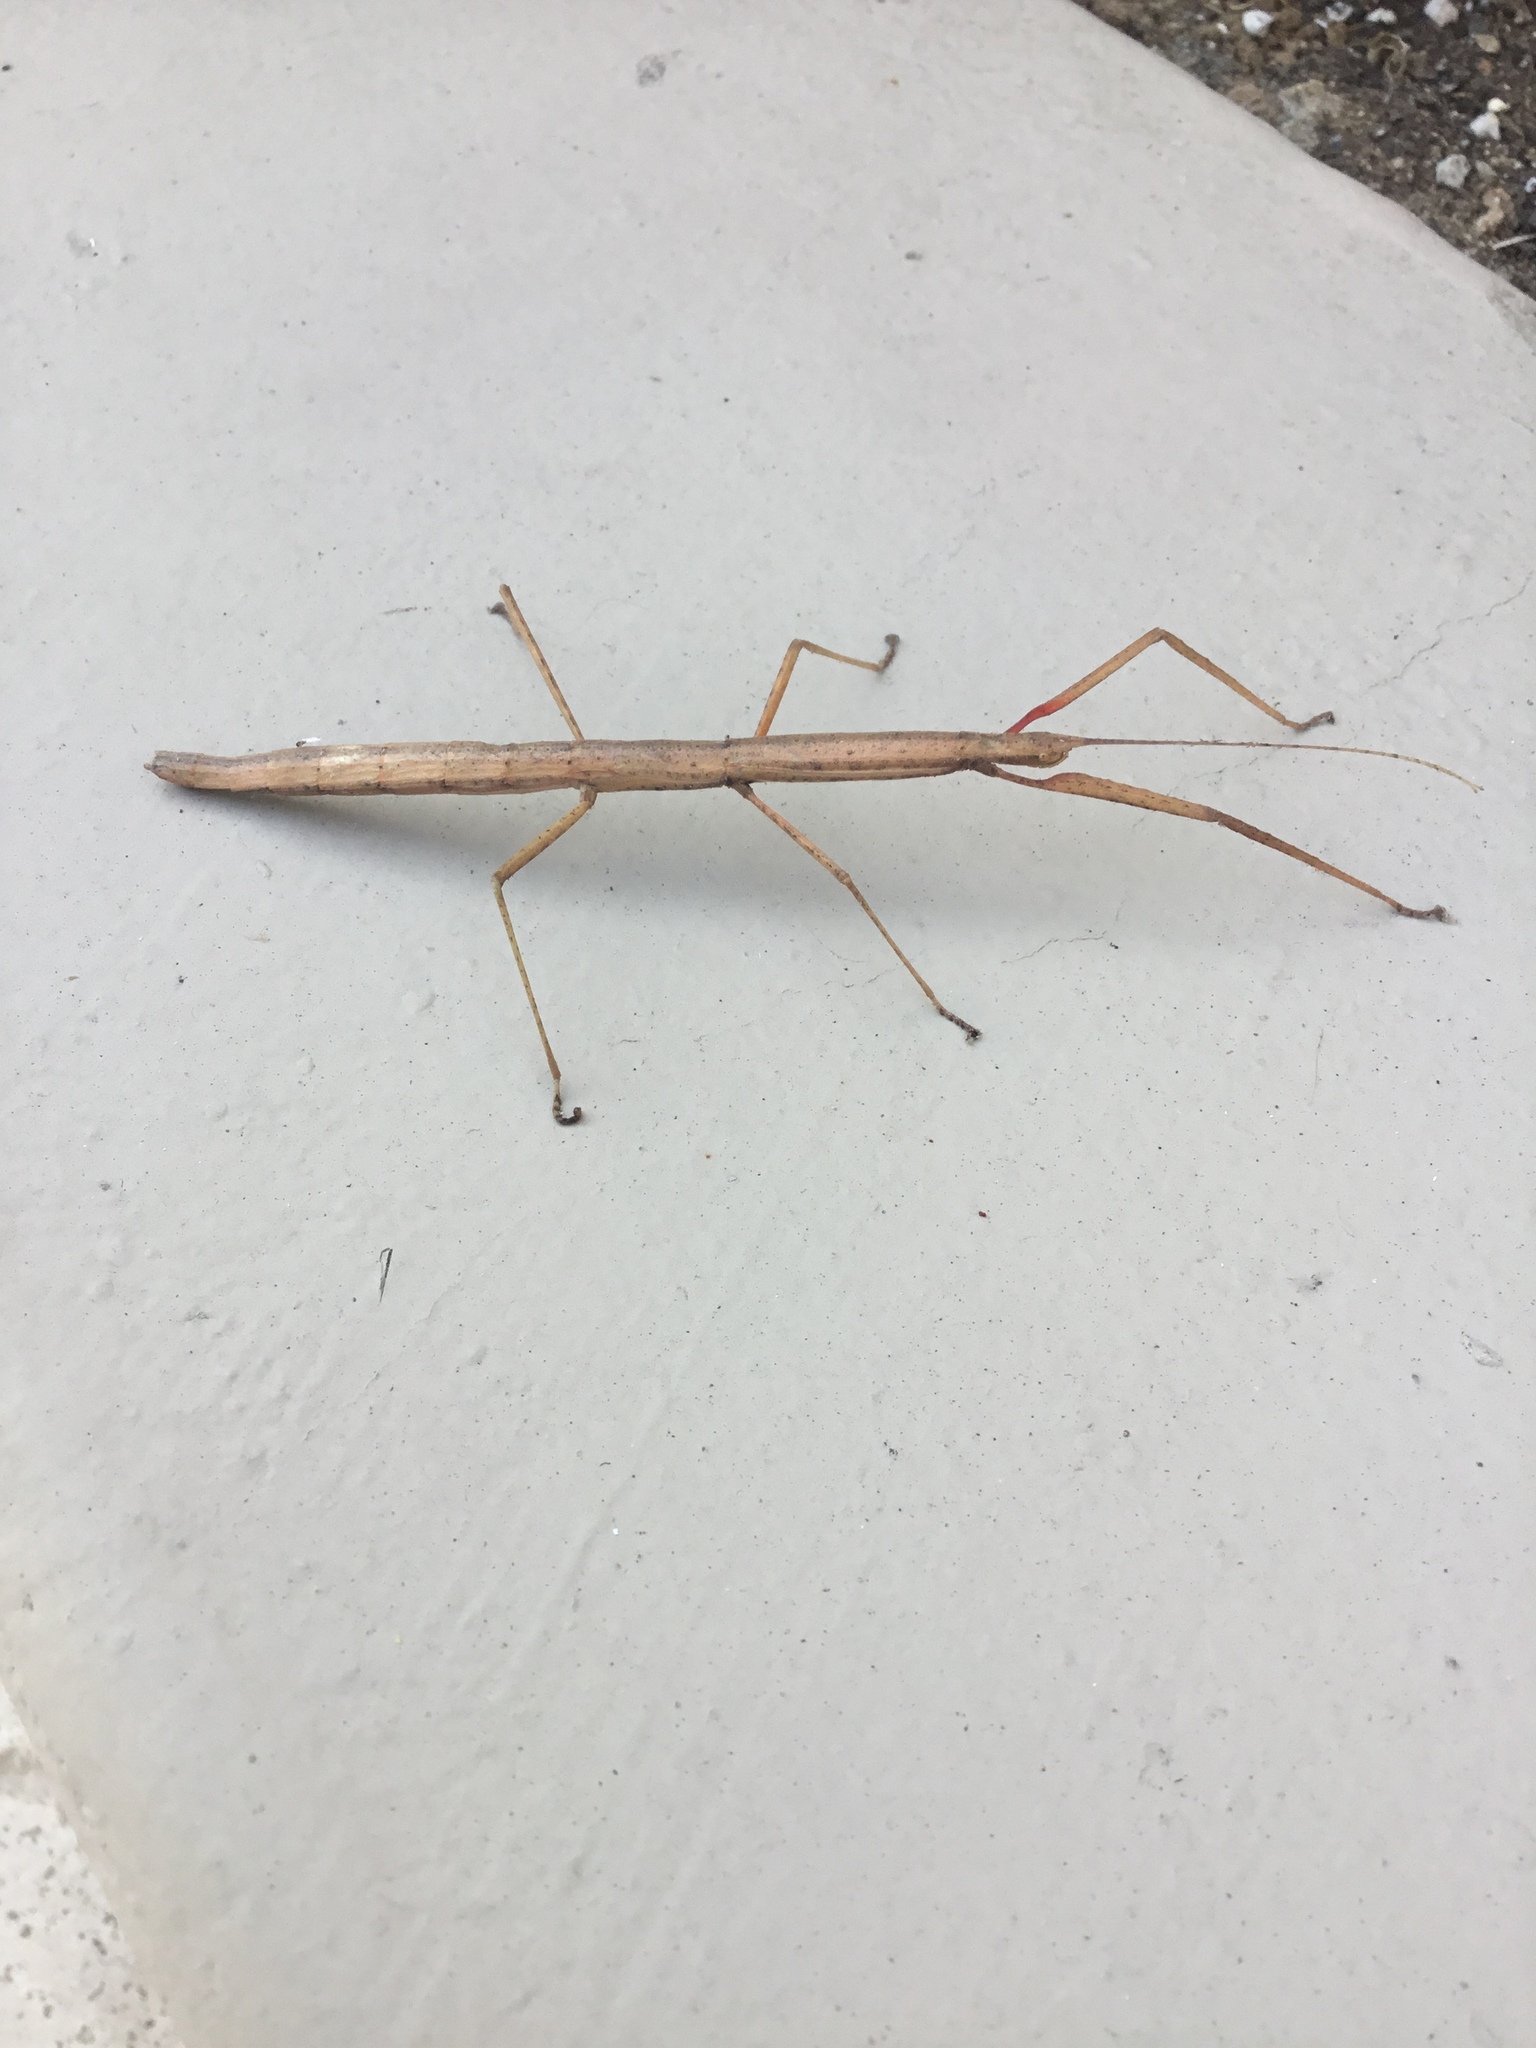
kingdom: Animalia
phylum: Arthropoda
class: Insecta
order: Phasmida
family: Lonchodidae
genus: Carausius
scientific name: Carausius morosus
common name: Indian stick insect
